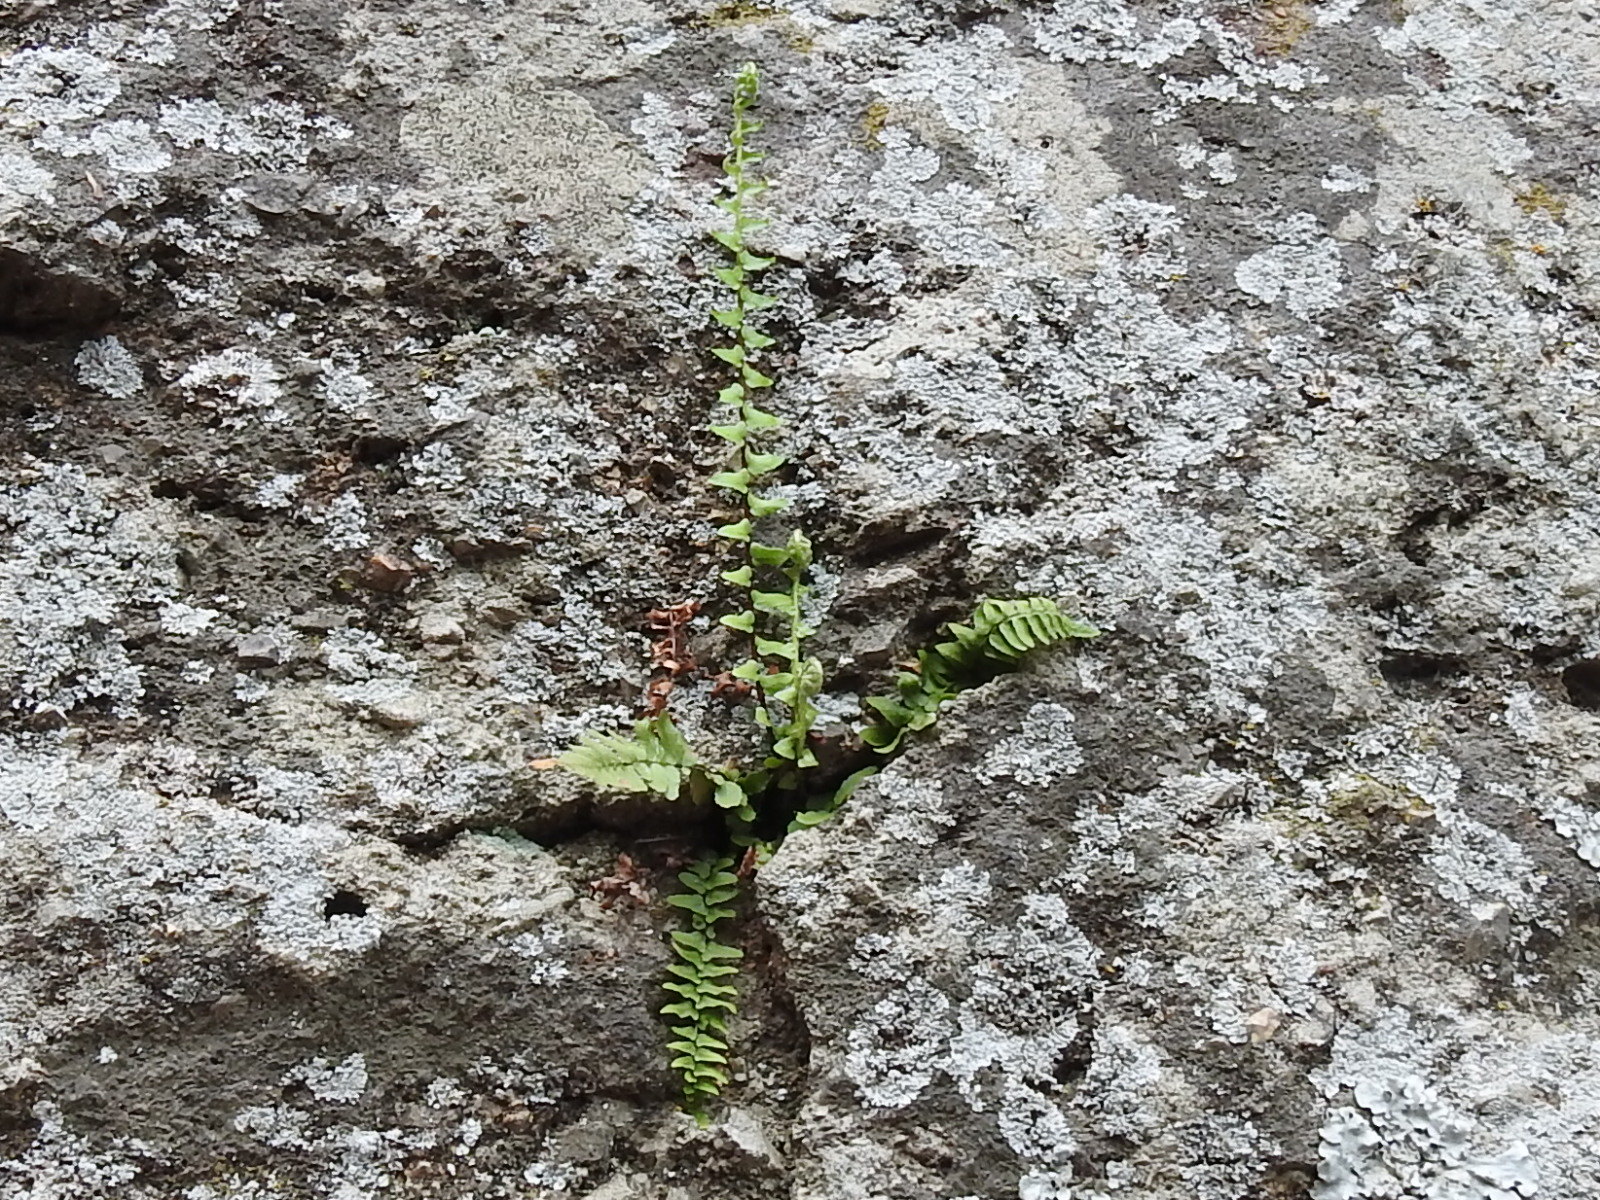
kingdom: Plantae
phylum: Tracheophyta
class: Polypodiopsida
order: Polypodiales
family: Aspleniaceae
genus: Asplenium
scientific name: Asplenium platyneuron
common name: Ebony spleenwort
